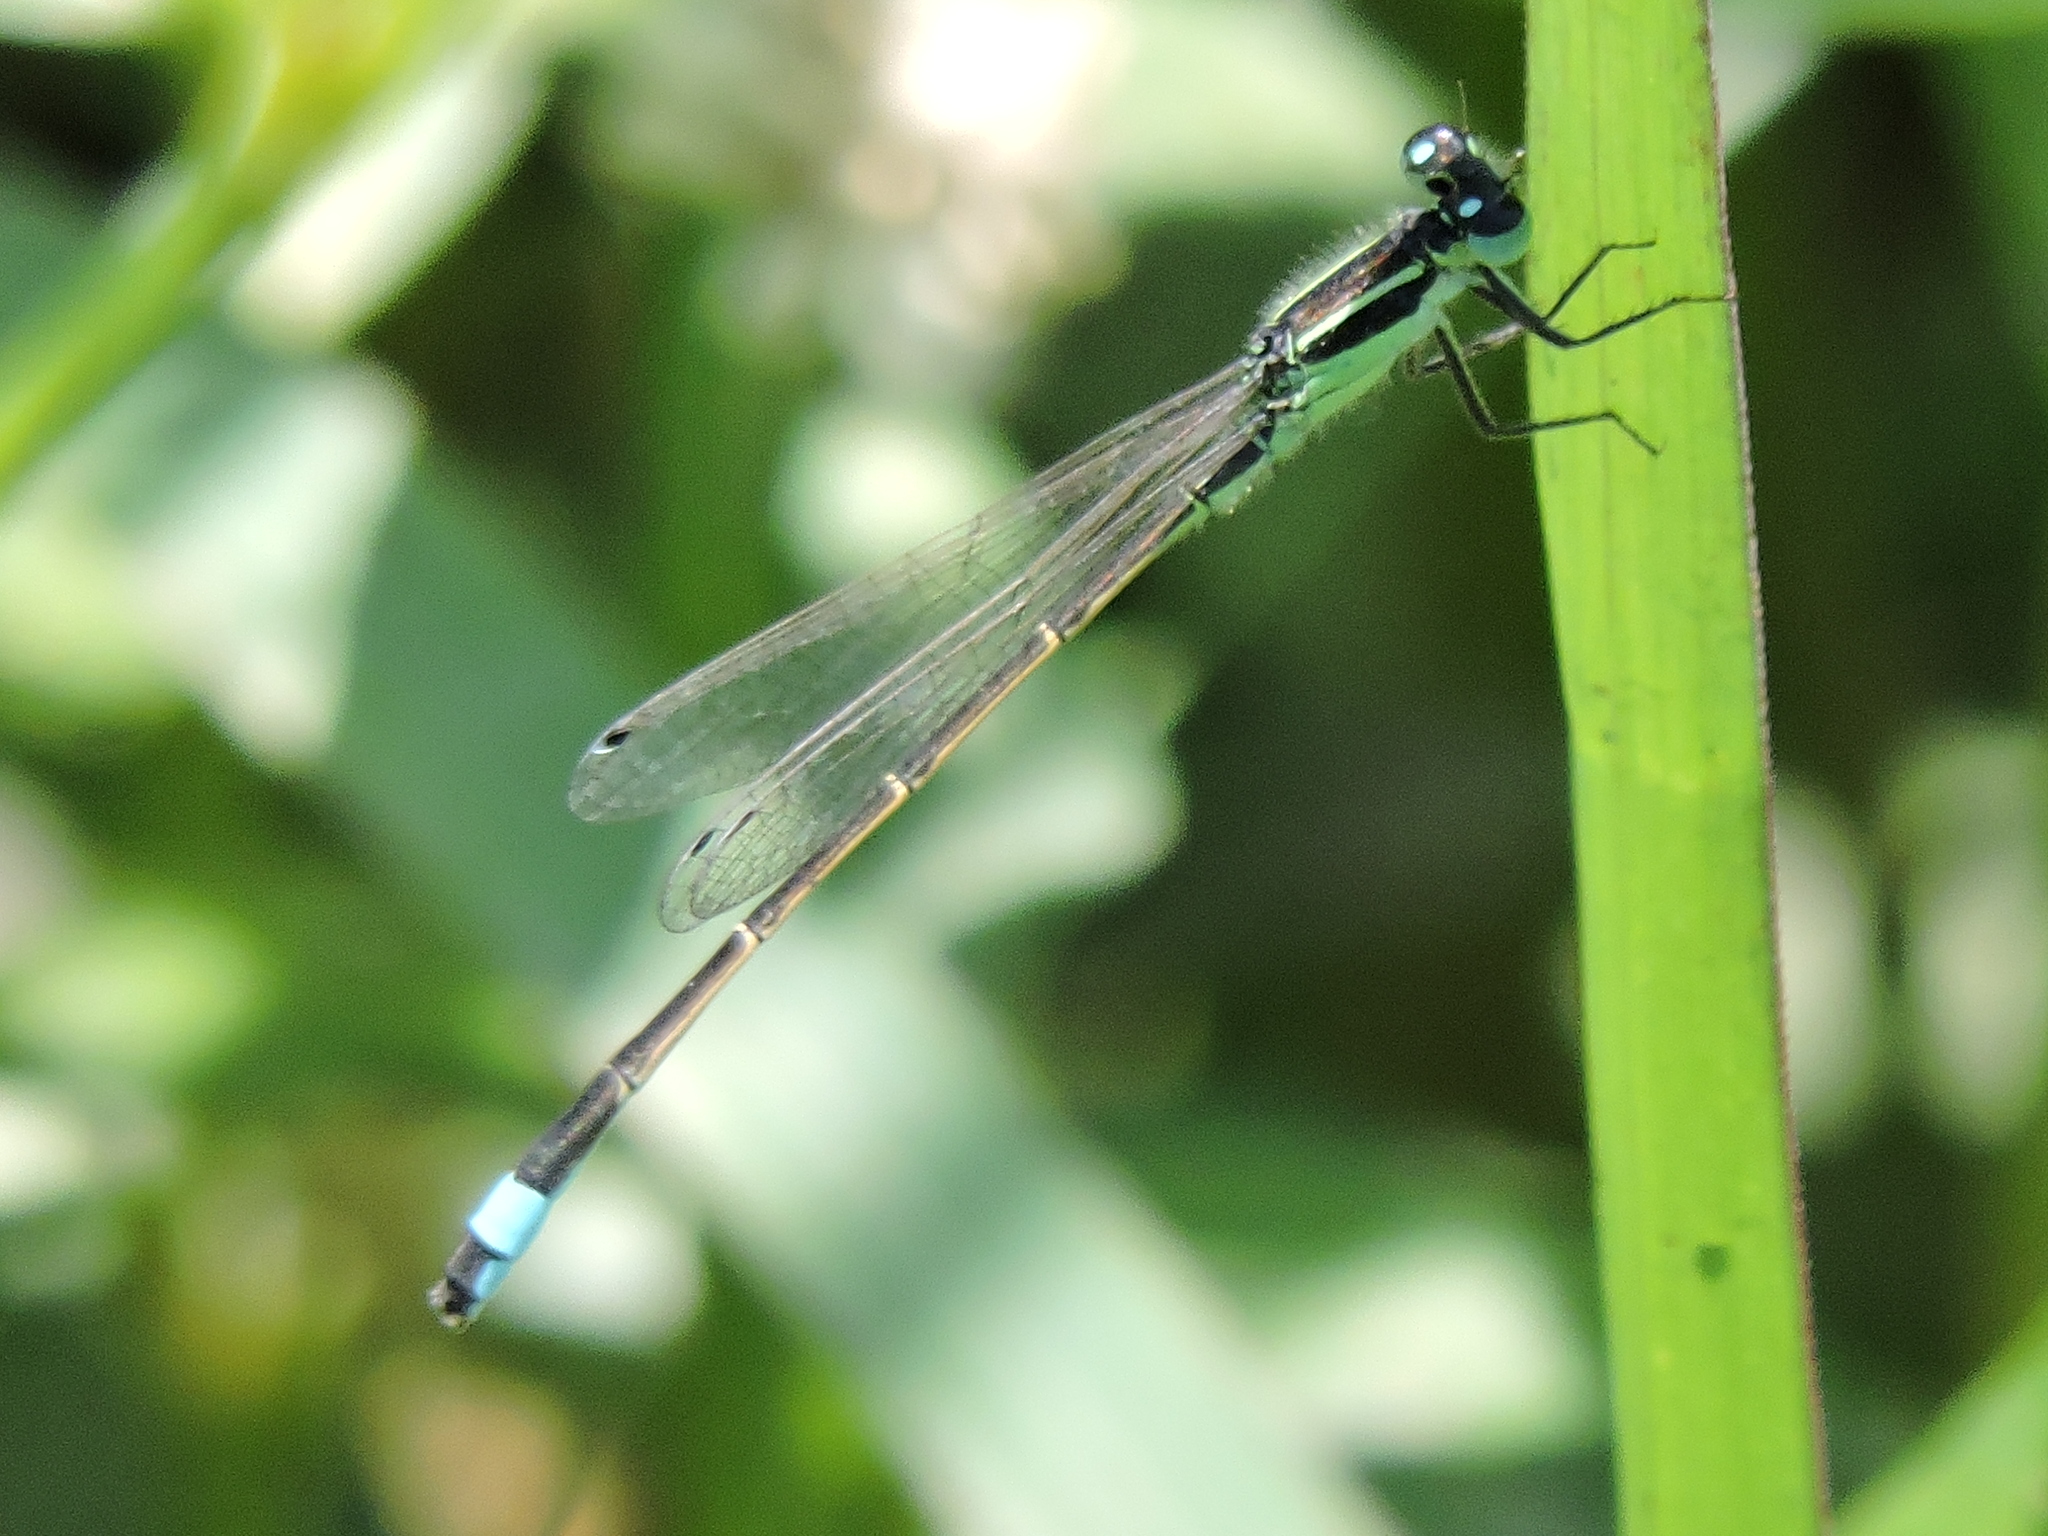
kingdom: Animalia
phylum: Arthropoda
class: Insecta
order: Odonata
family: Coenagrionidae
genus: Ischnura
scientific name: Ischnura ramburii
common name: Rambur's forktail
